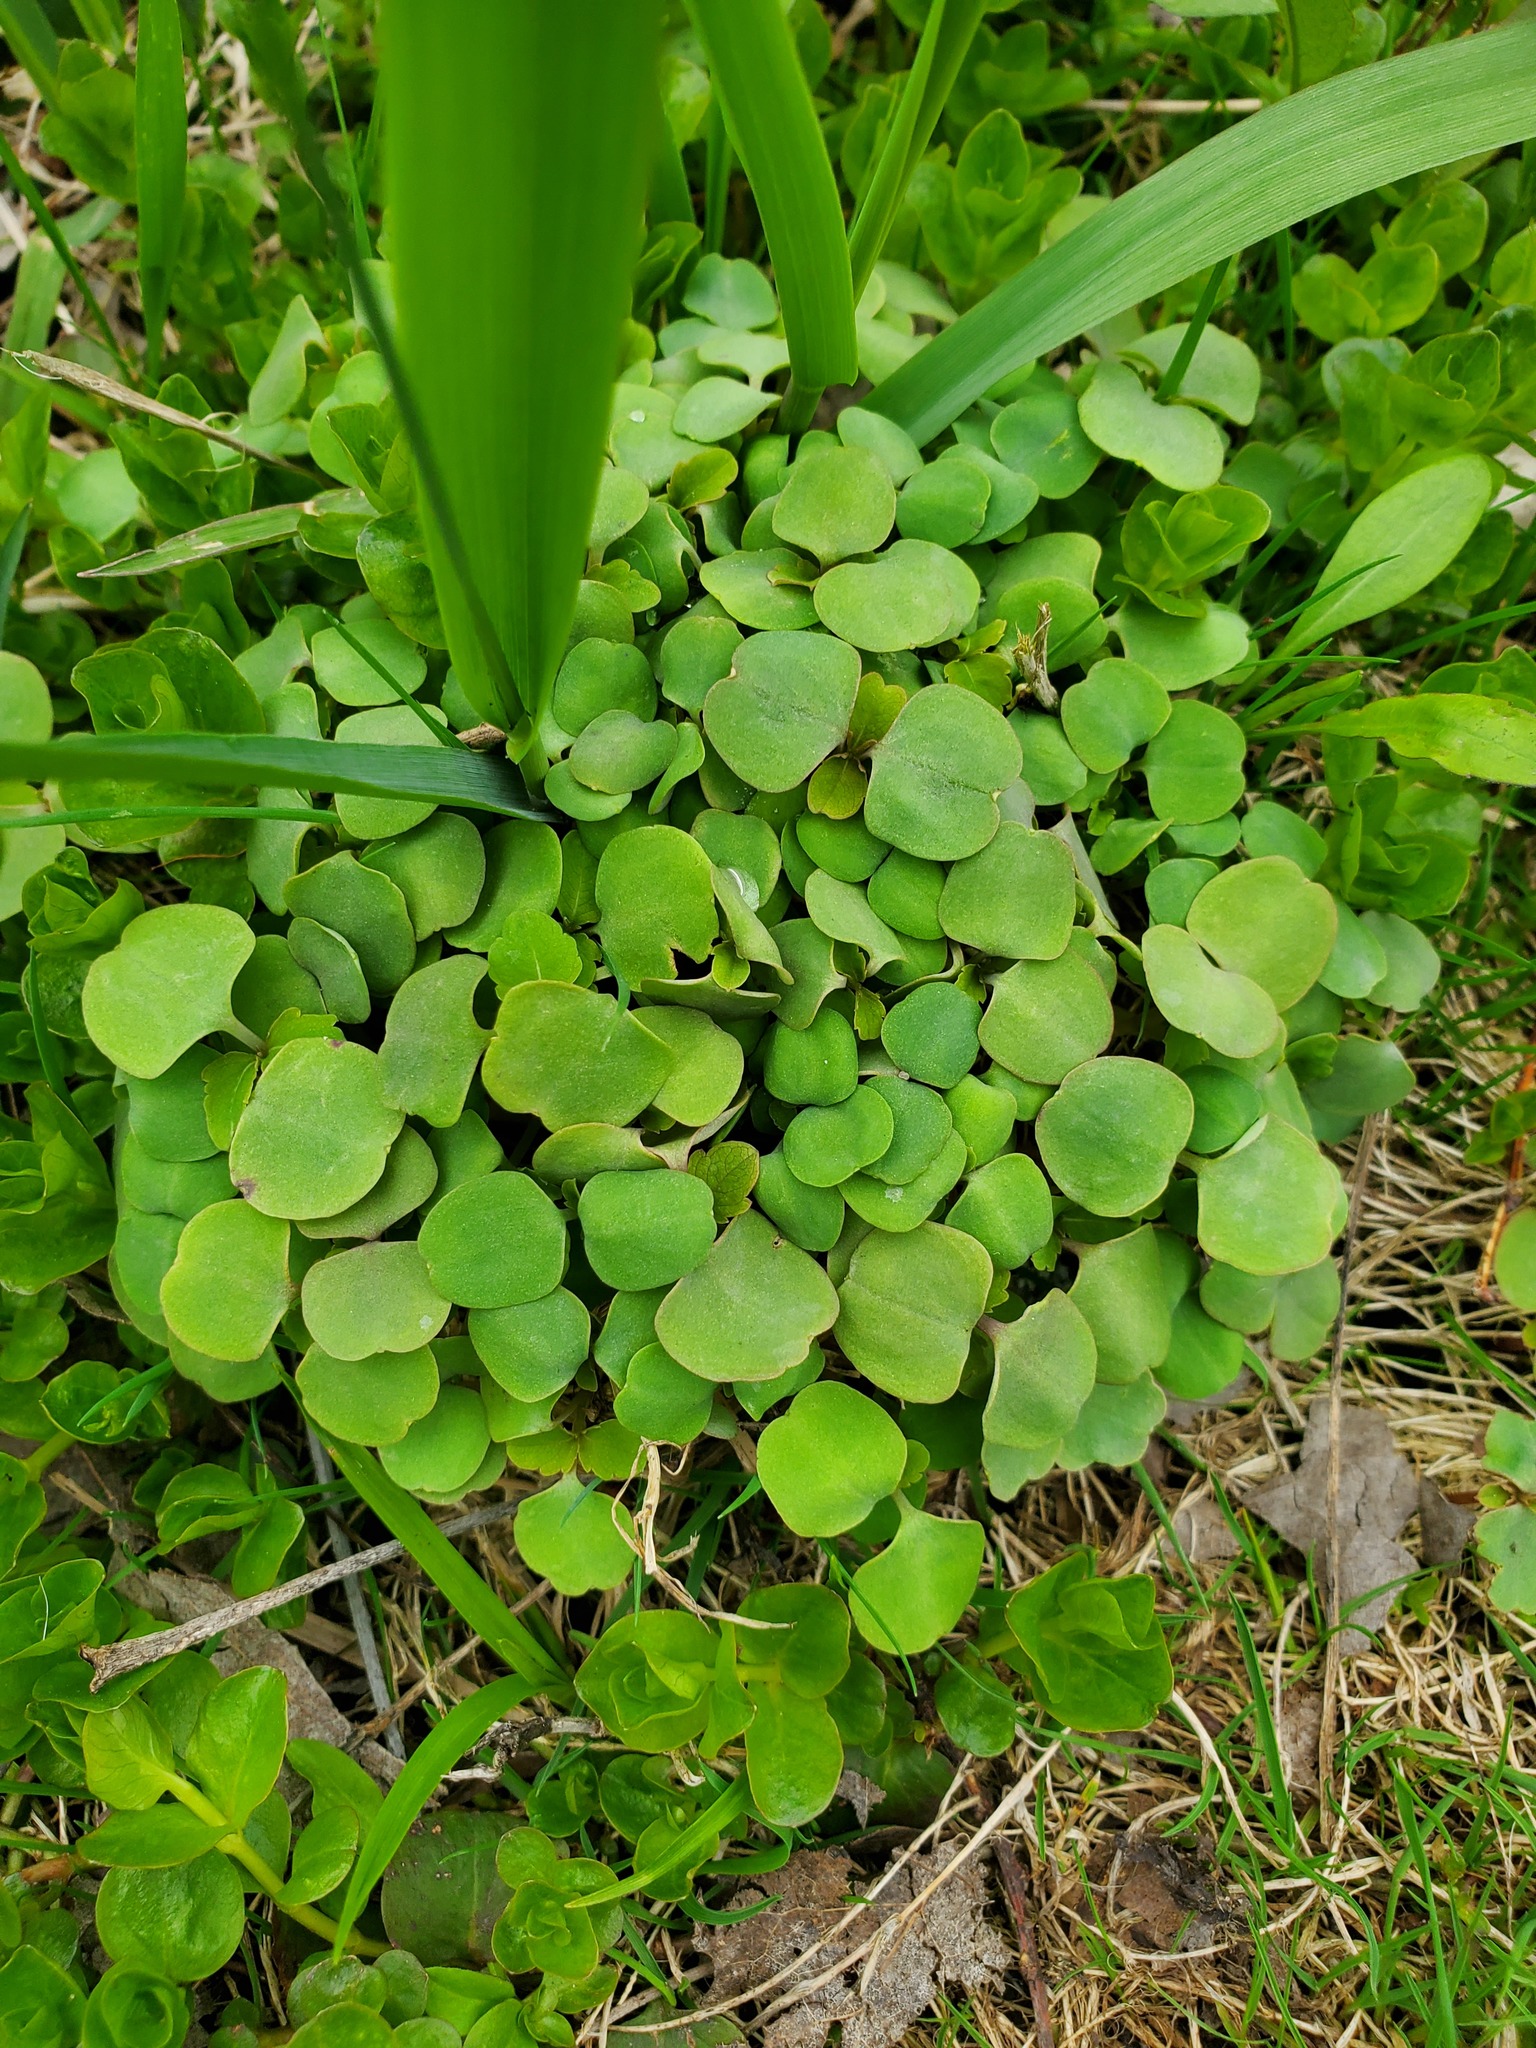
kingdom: Plantae
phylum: Tracheophyta
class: Magnoliopsida
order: Ericales
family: Balsaminaceae
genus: Impatiens
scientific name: Impatiens
